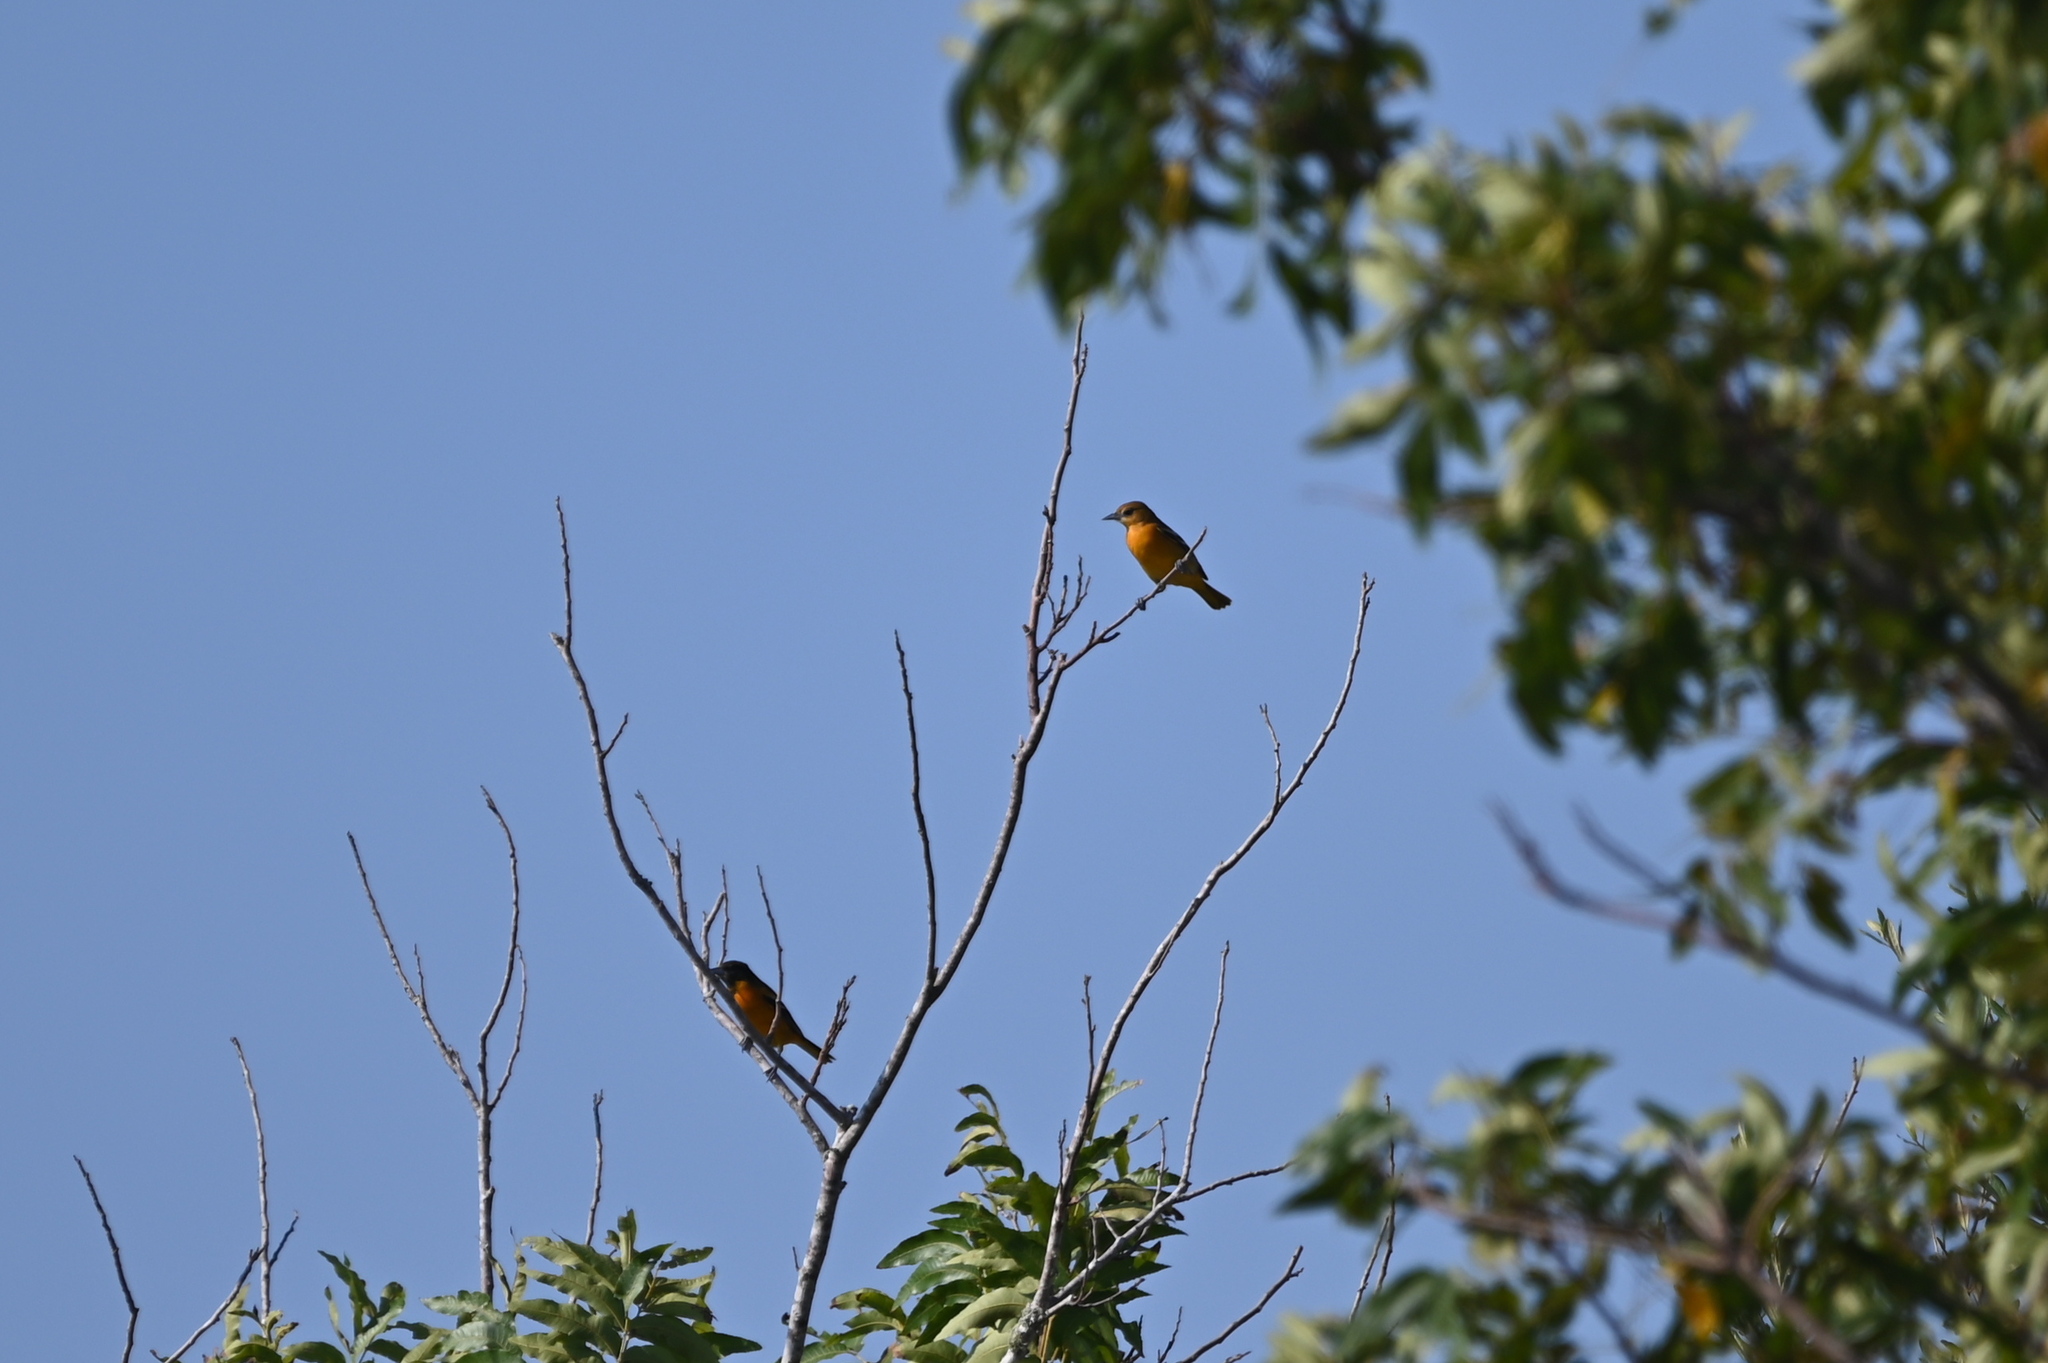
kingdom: Animalia
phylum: Chordata
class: Aves
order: Passeriformes
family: Icteridae
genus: Icterus
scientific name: Icterus galbula
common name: Baltimore oriole
